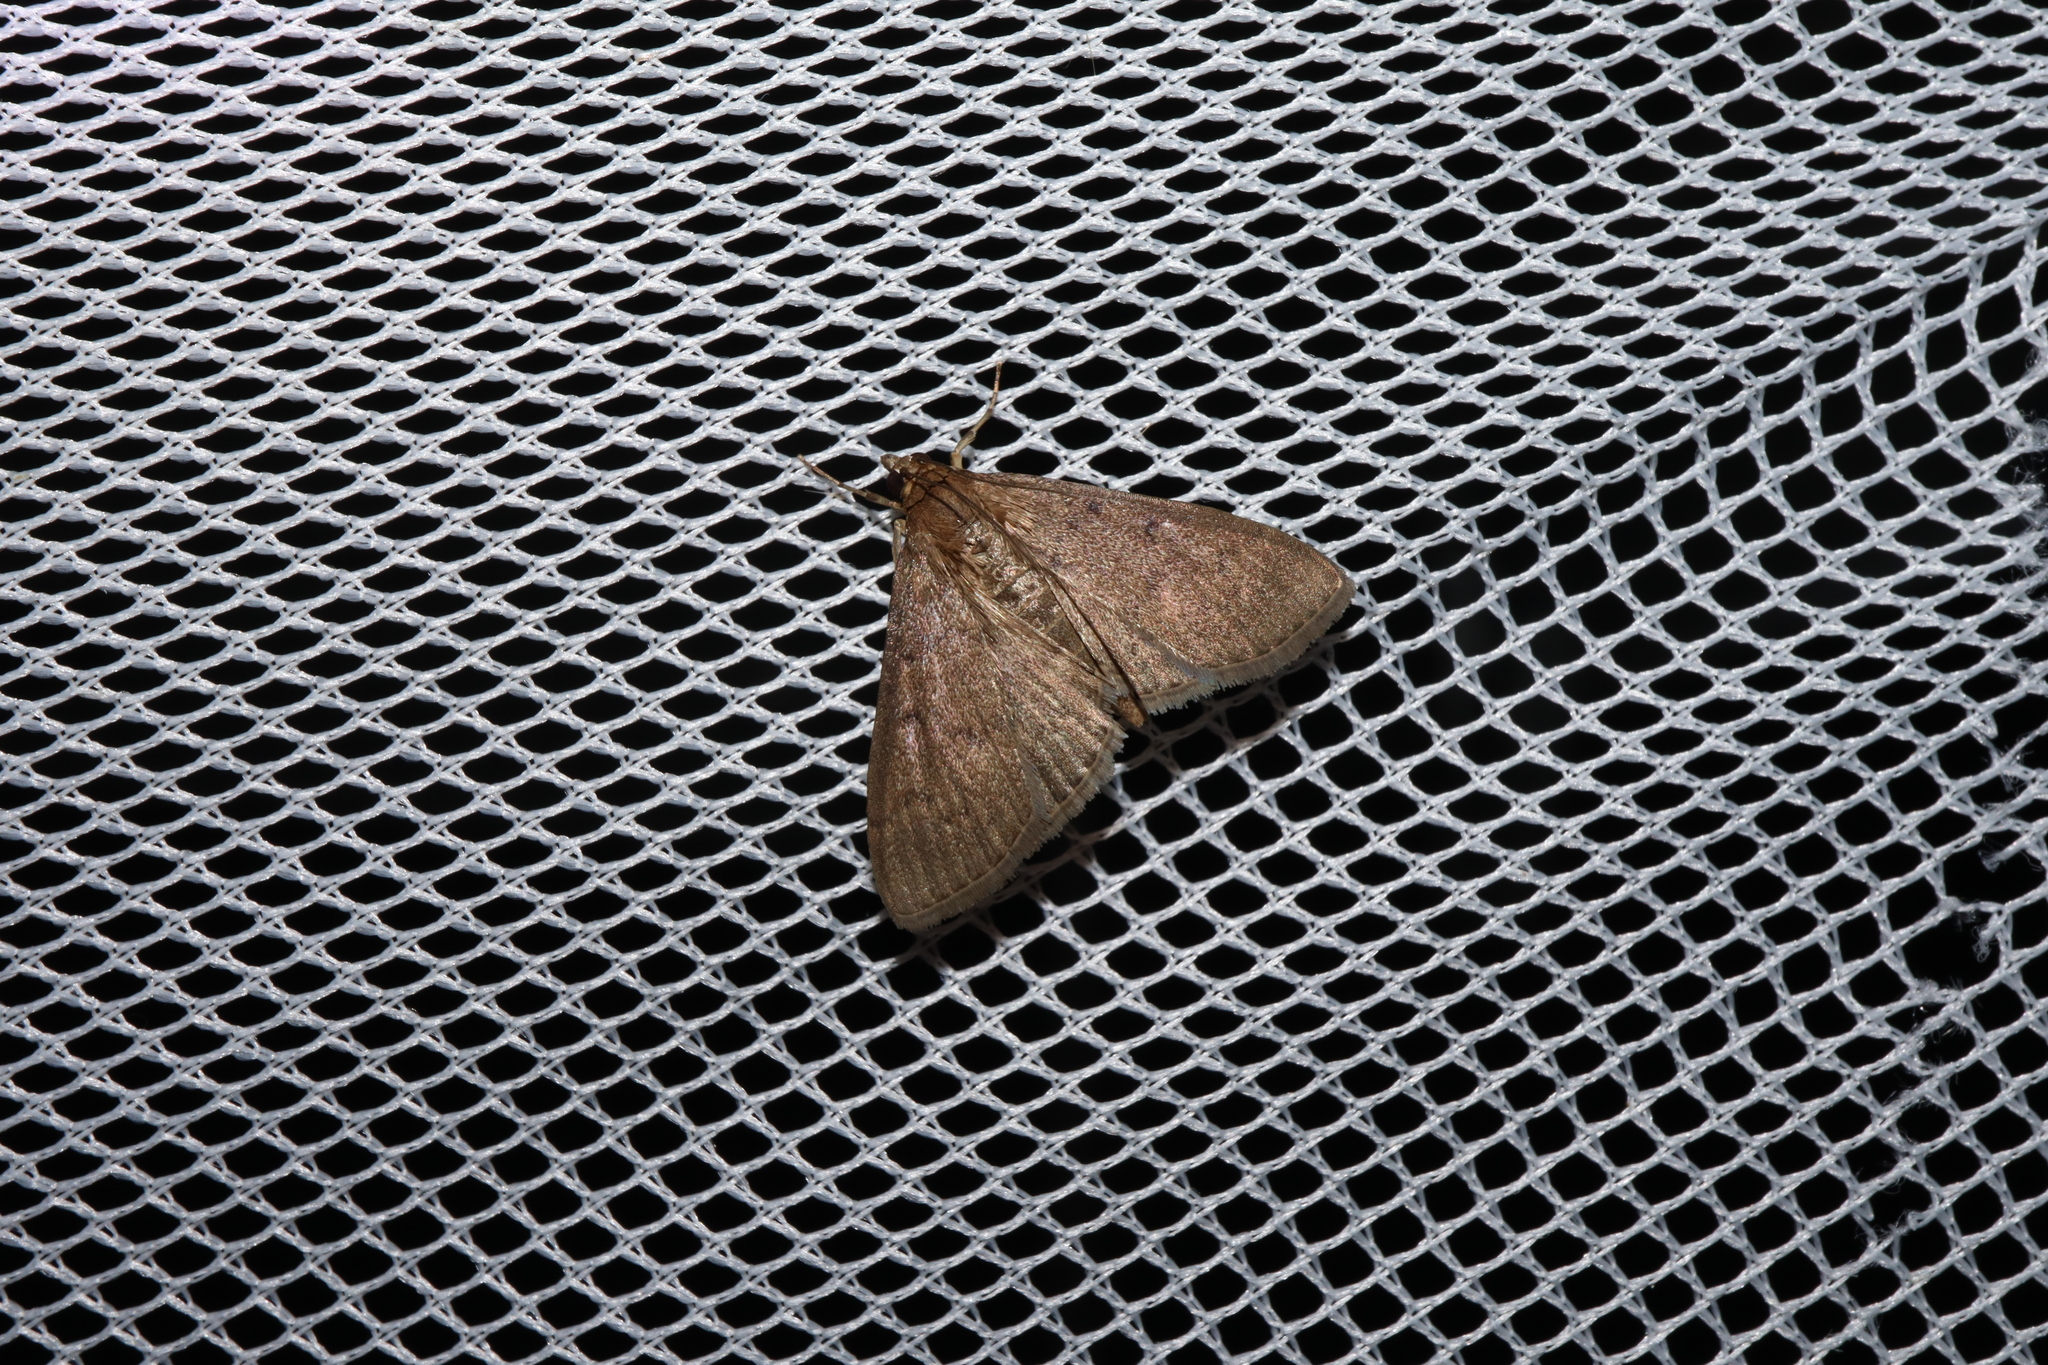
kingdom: Animalia
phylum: Arthropoda
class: Insecta
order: Lepidoptera
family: Crambidae
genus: Herpetogramma
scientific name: Herpetogramma licarsisalis
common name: Grass webworm
